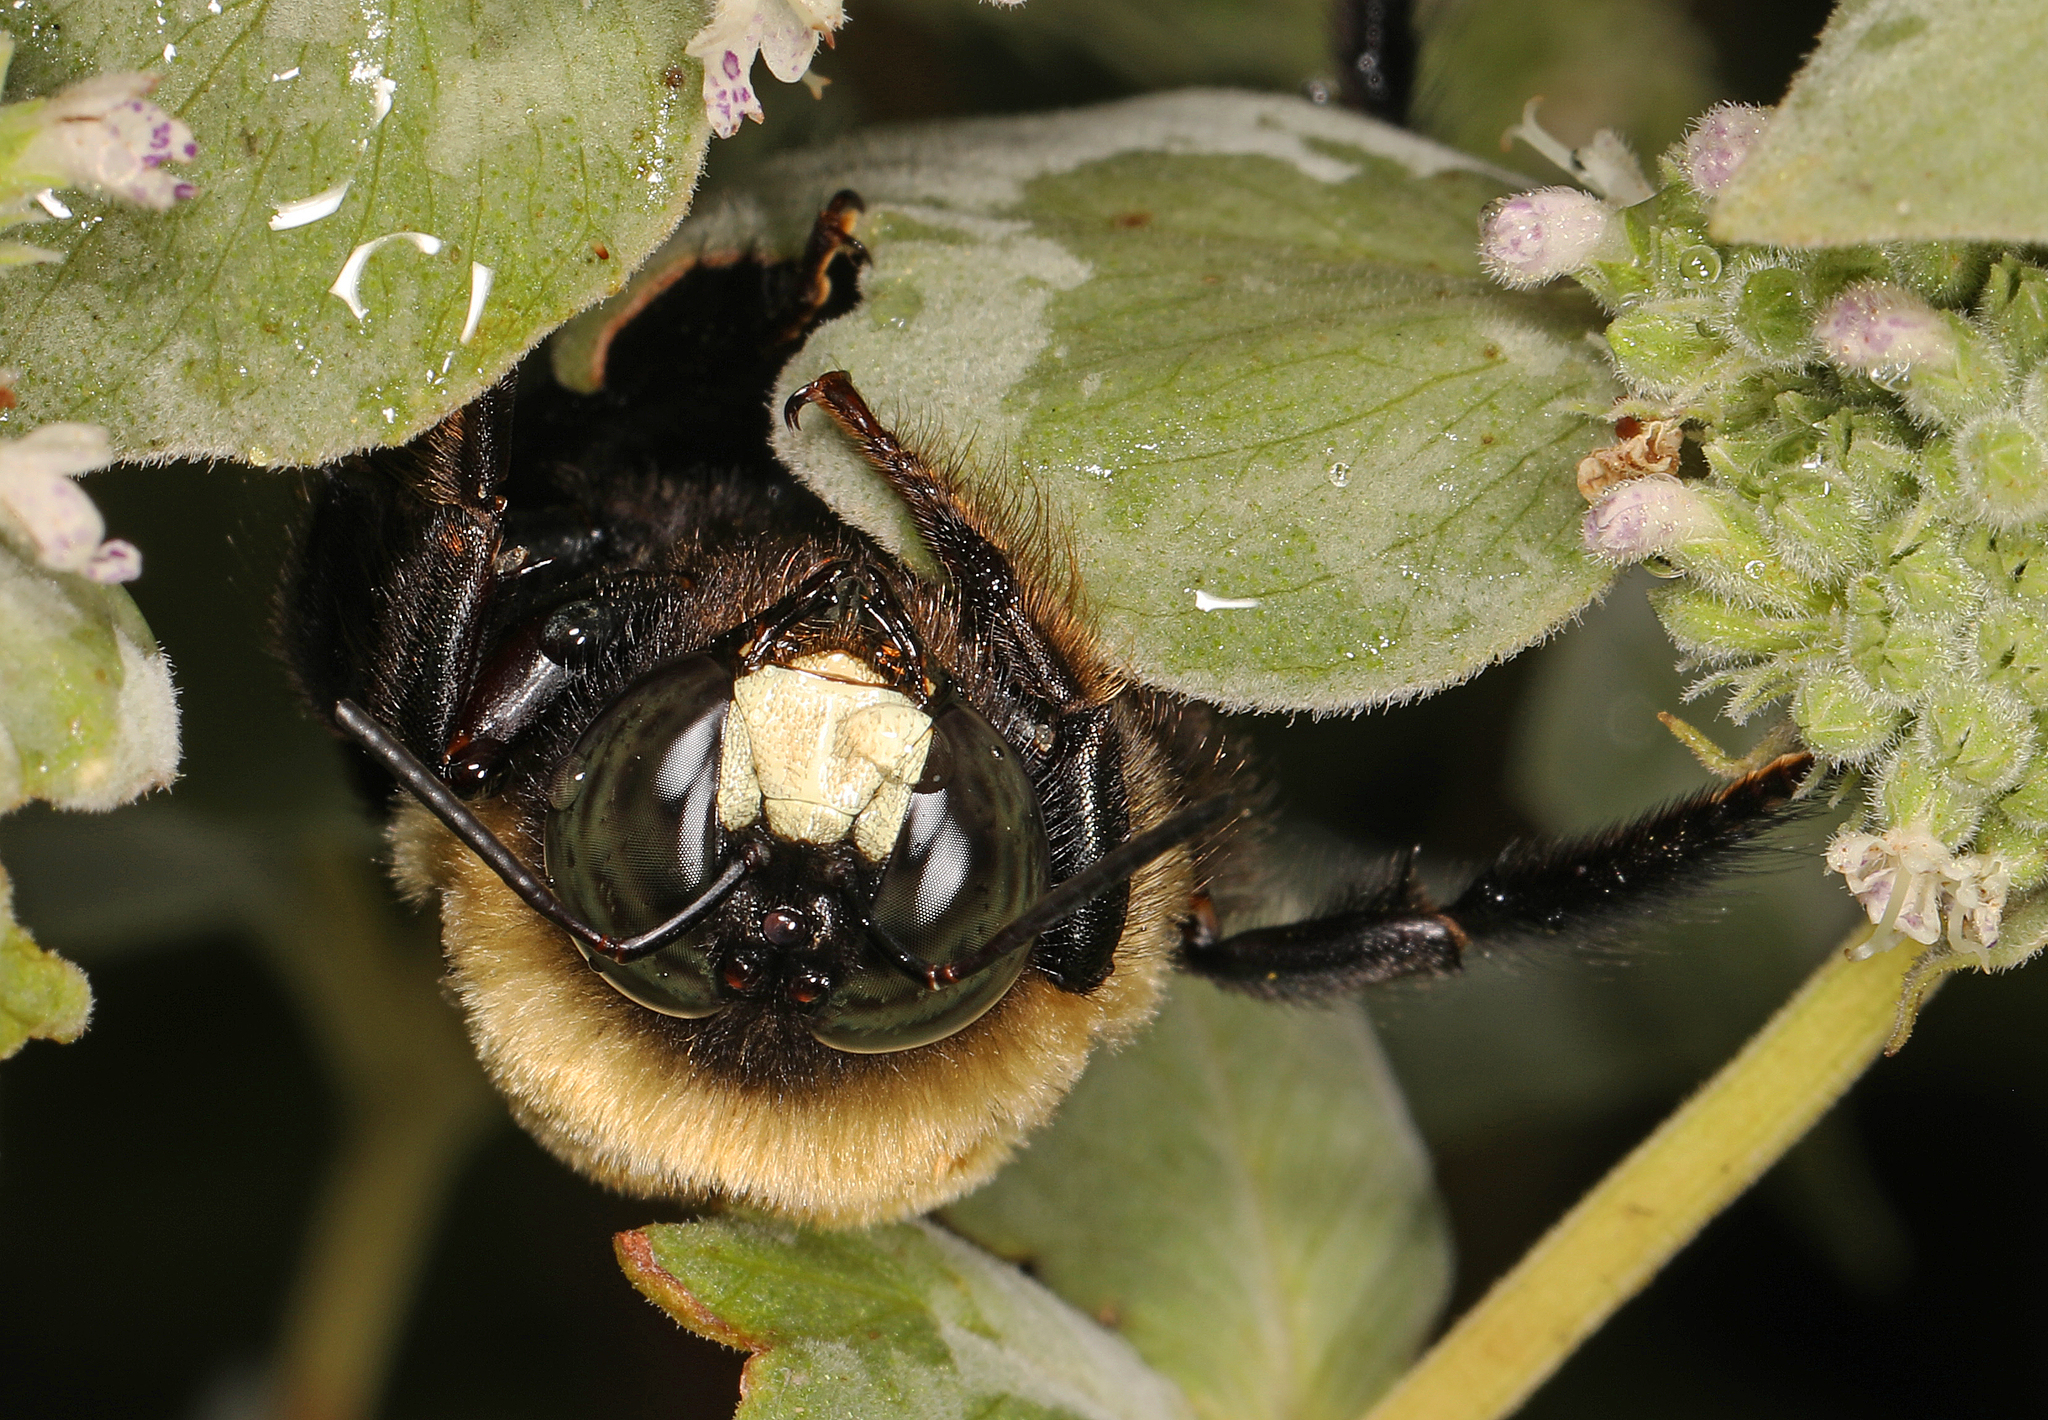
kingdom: Animalia
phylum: Arthropoda
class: Insecta
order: Hymenoptera
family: Apidae
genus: Xylocopa
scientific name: Xylocopa virginica
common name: Carpenter bee
